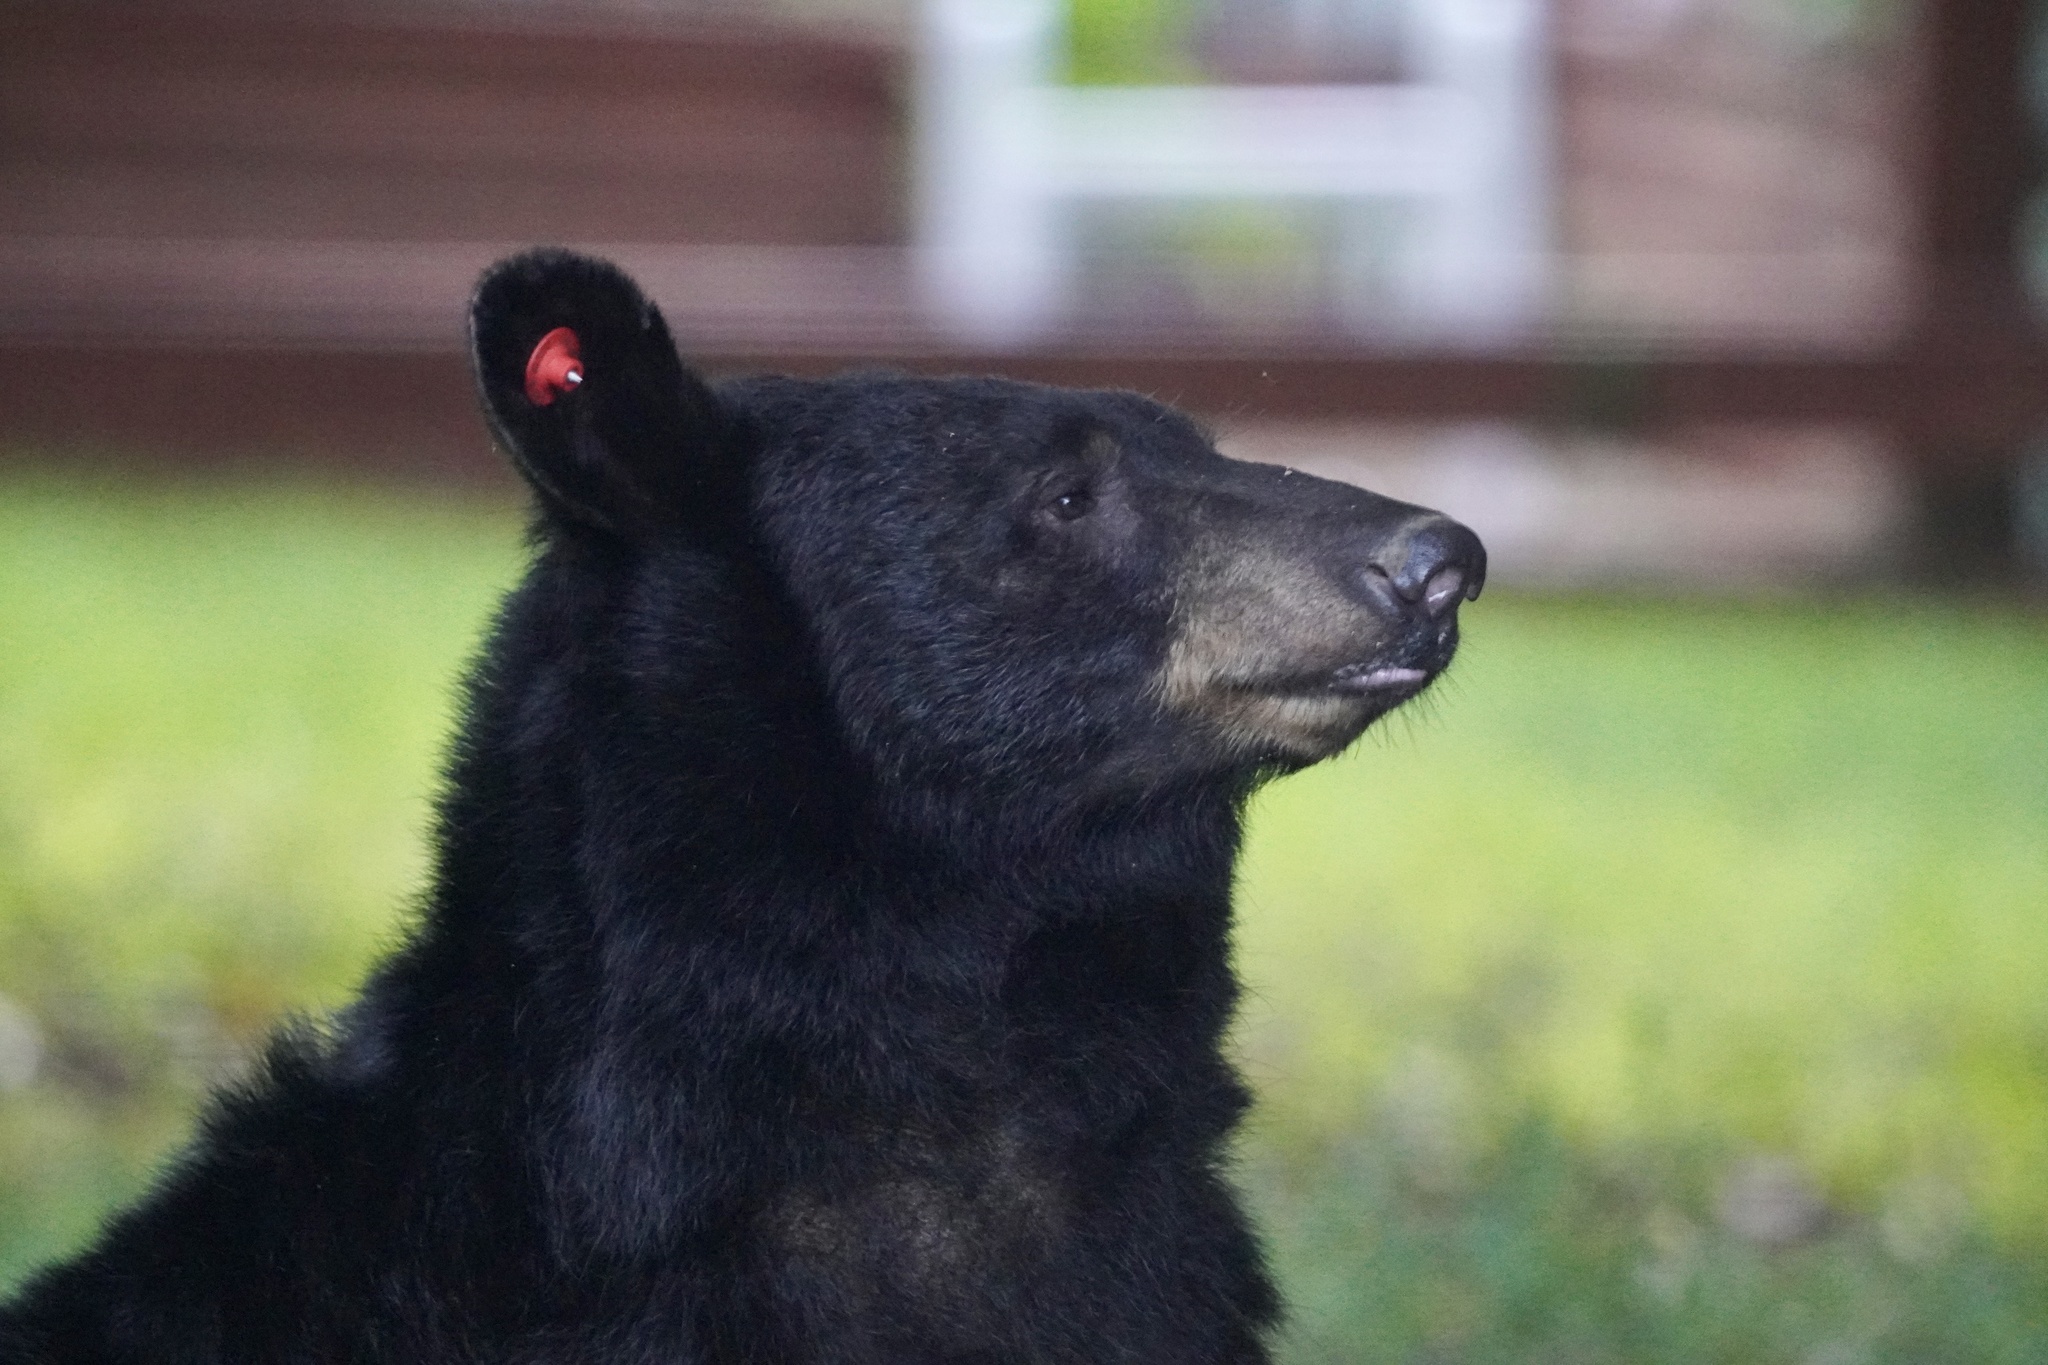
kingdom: Animalia
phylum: Chordata
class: Mammalia
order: Carnivora
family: Ursidae
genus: Ursus
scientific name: Ursus americanus
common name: American black bear
